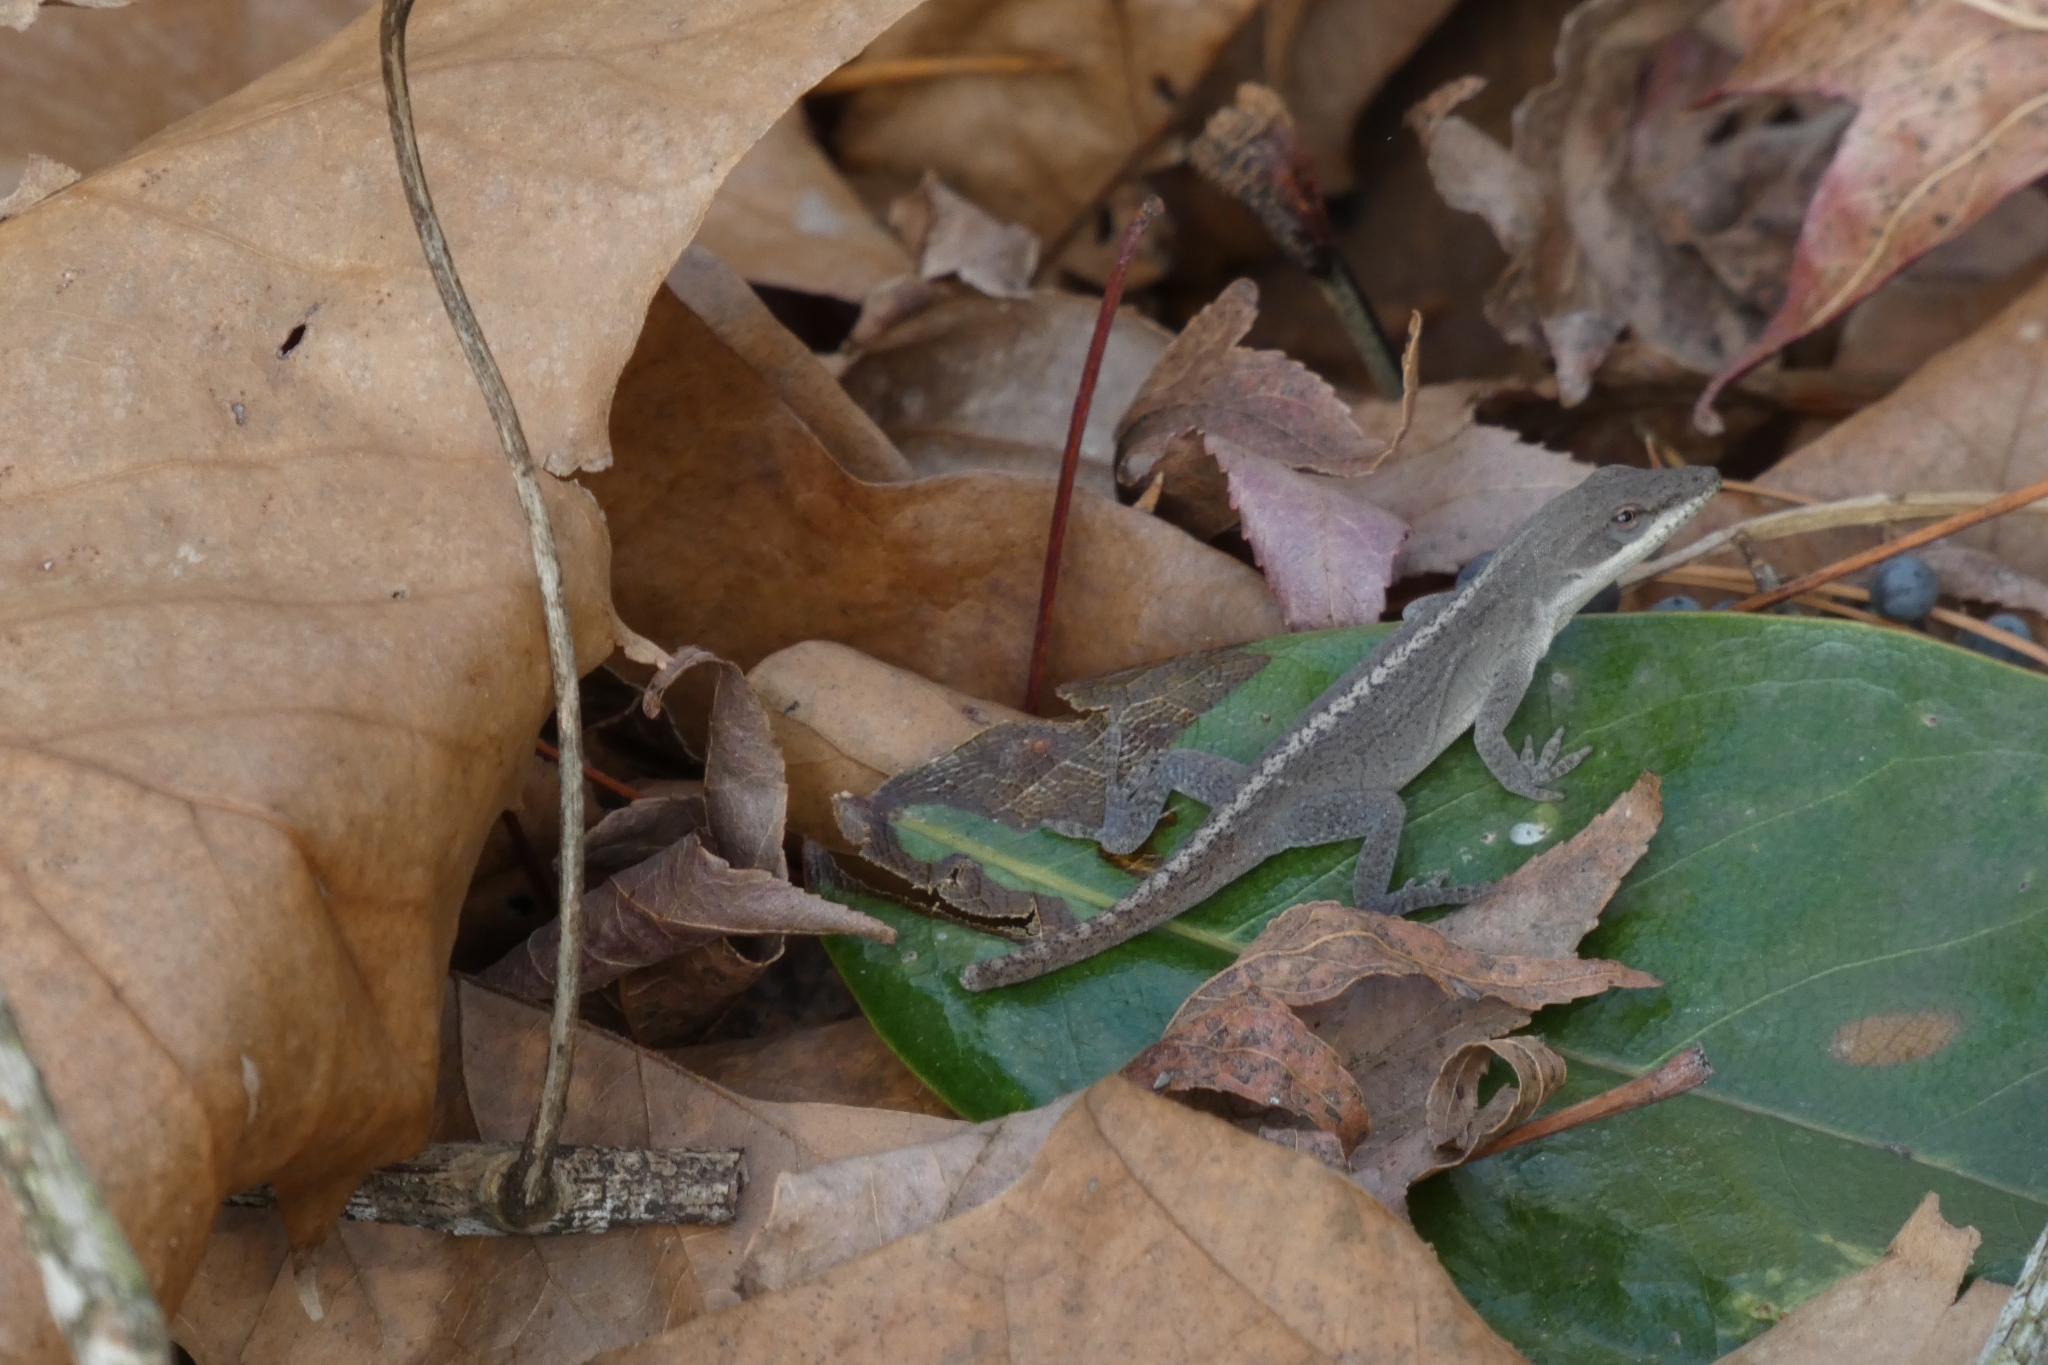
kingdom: Animalia
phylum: Chordata
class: Squamata
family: Dactyloidae
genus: Anolis
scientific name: Anolis carolinensis
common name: Green anole
